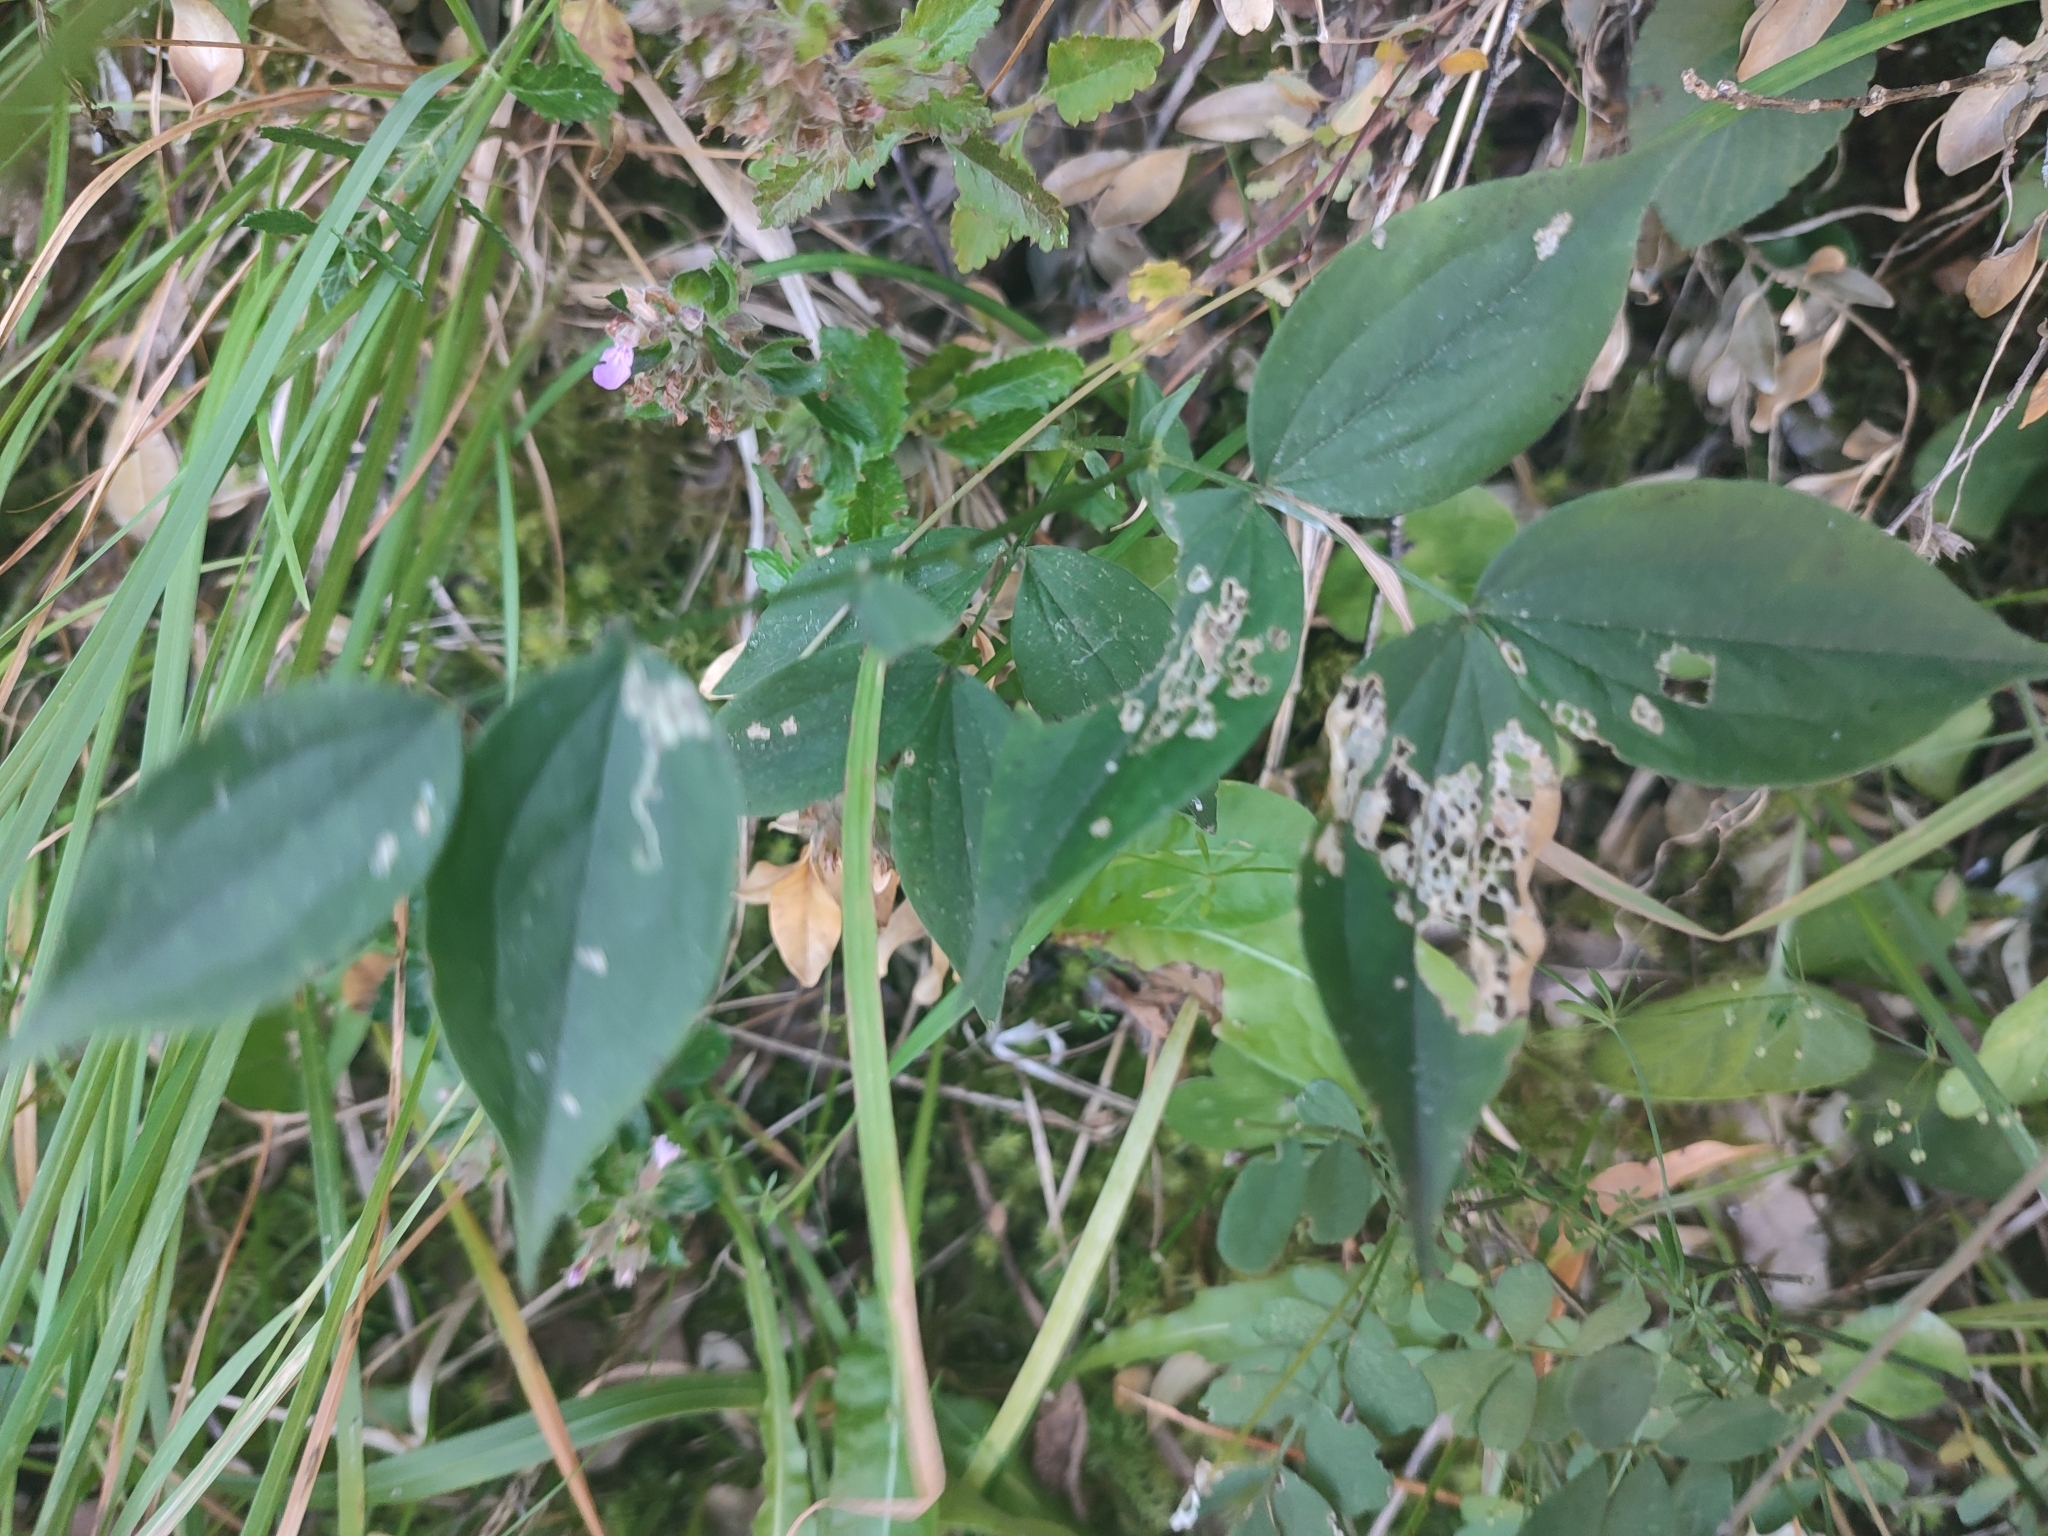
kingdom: Plantae
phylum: Tracheophyta
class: Magnoliopsida
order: Fabales
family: Fabaceae
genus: Lathyrus
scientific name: Lathyrus vernus
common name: Spring pea
